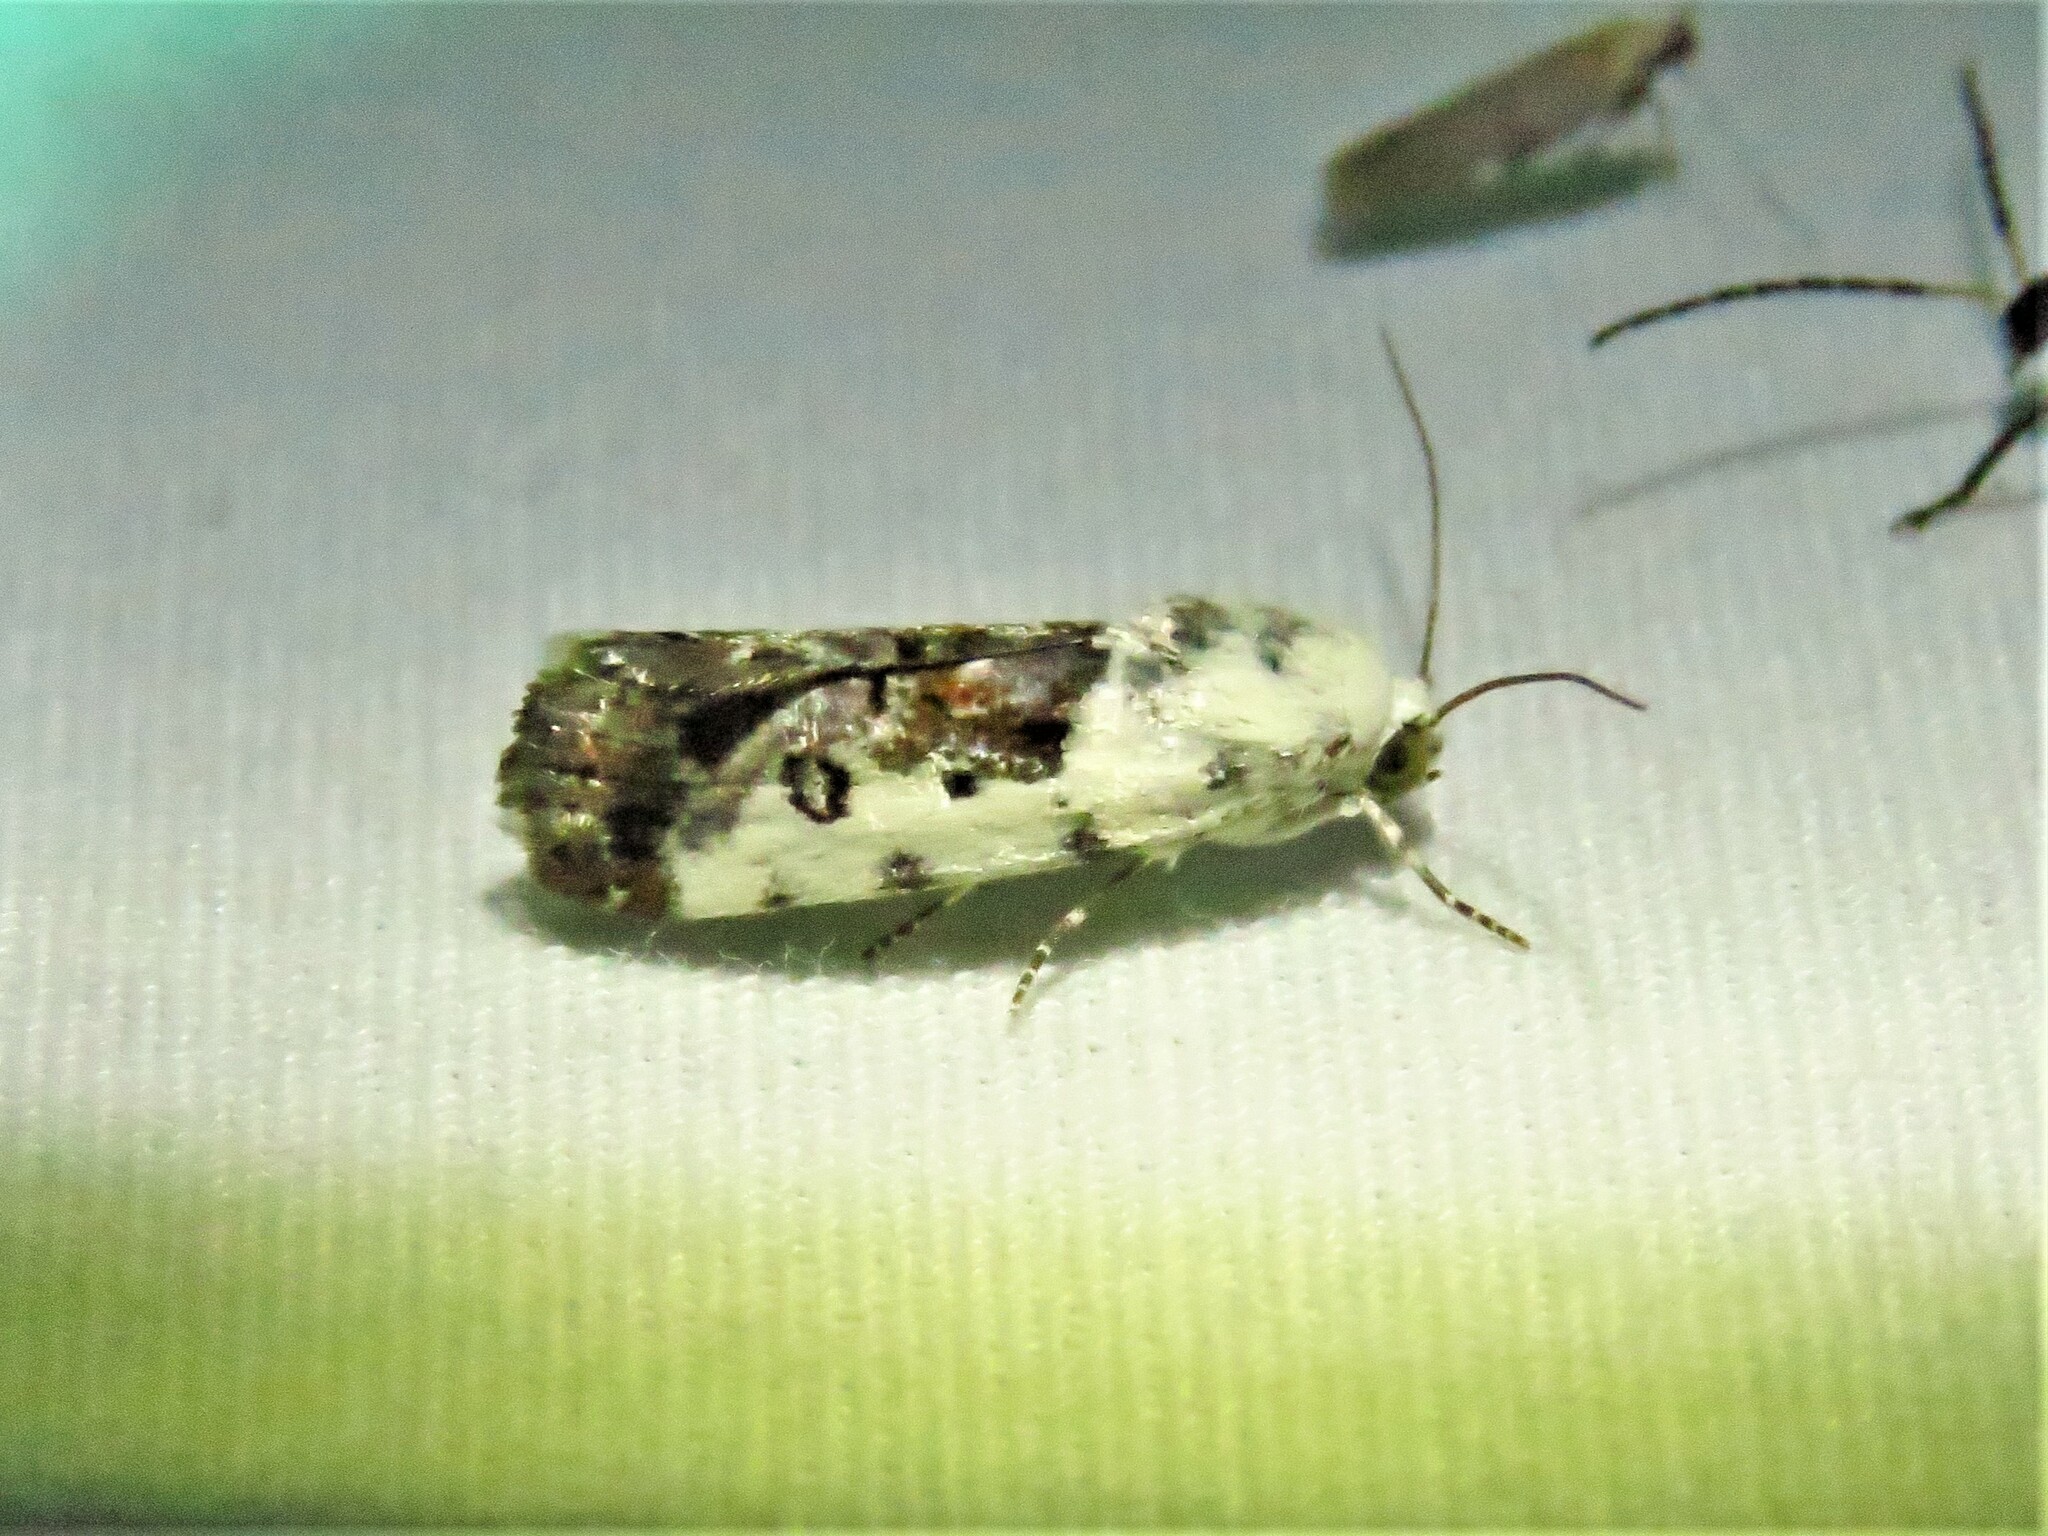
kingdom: Animalia
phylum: Arthropoda
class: Insecta
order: Lepidoptera
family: Noctuidae
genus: Acontia
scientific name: Acontia phecolisca
